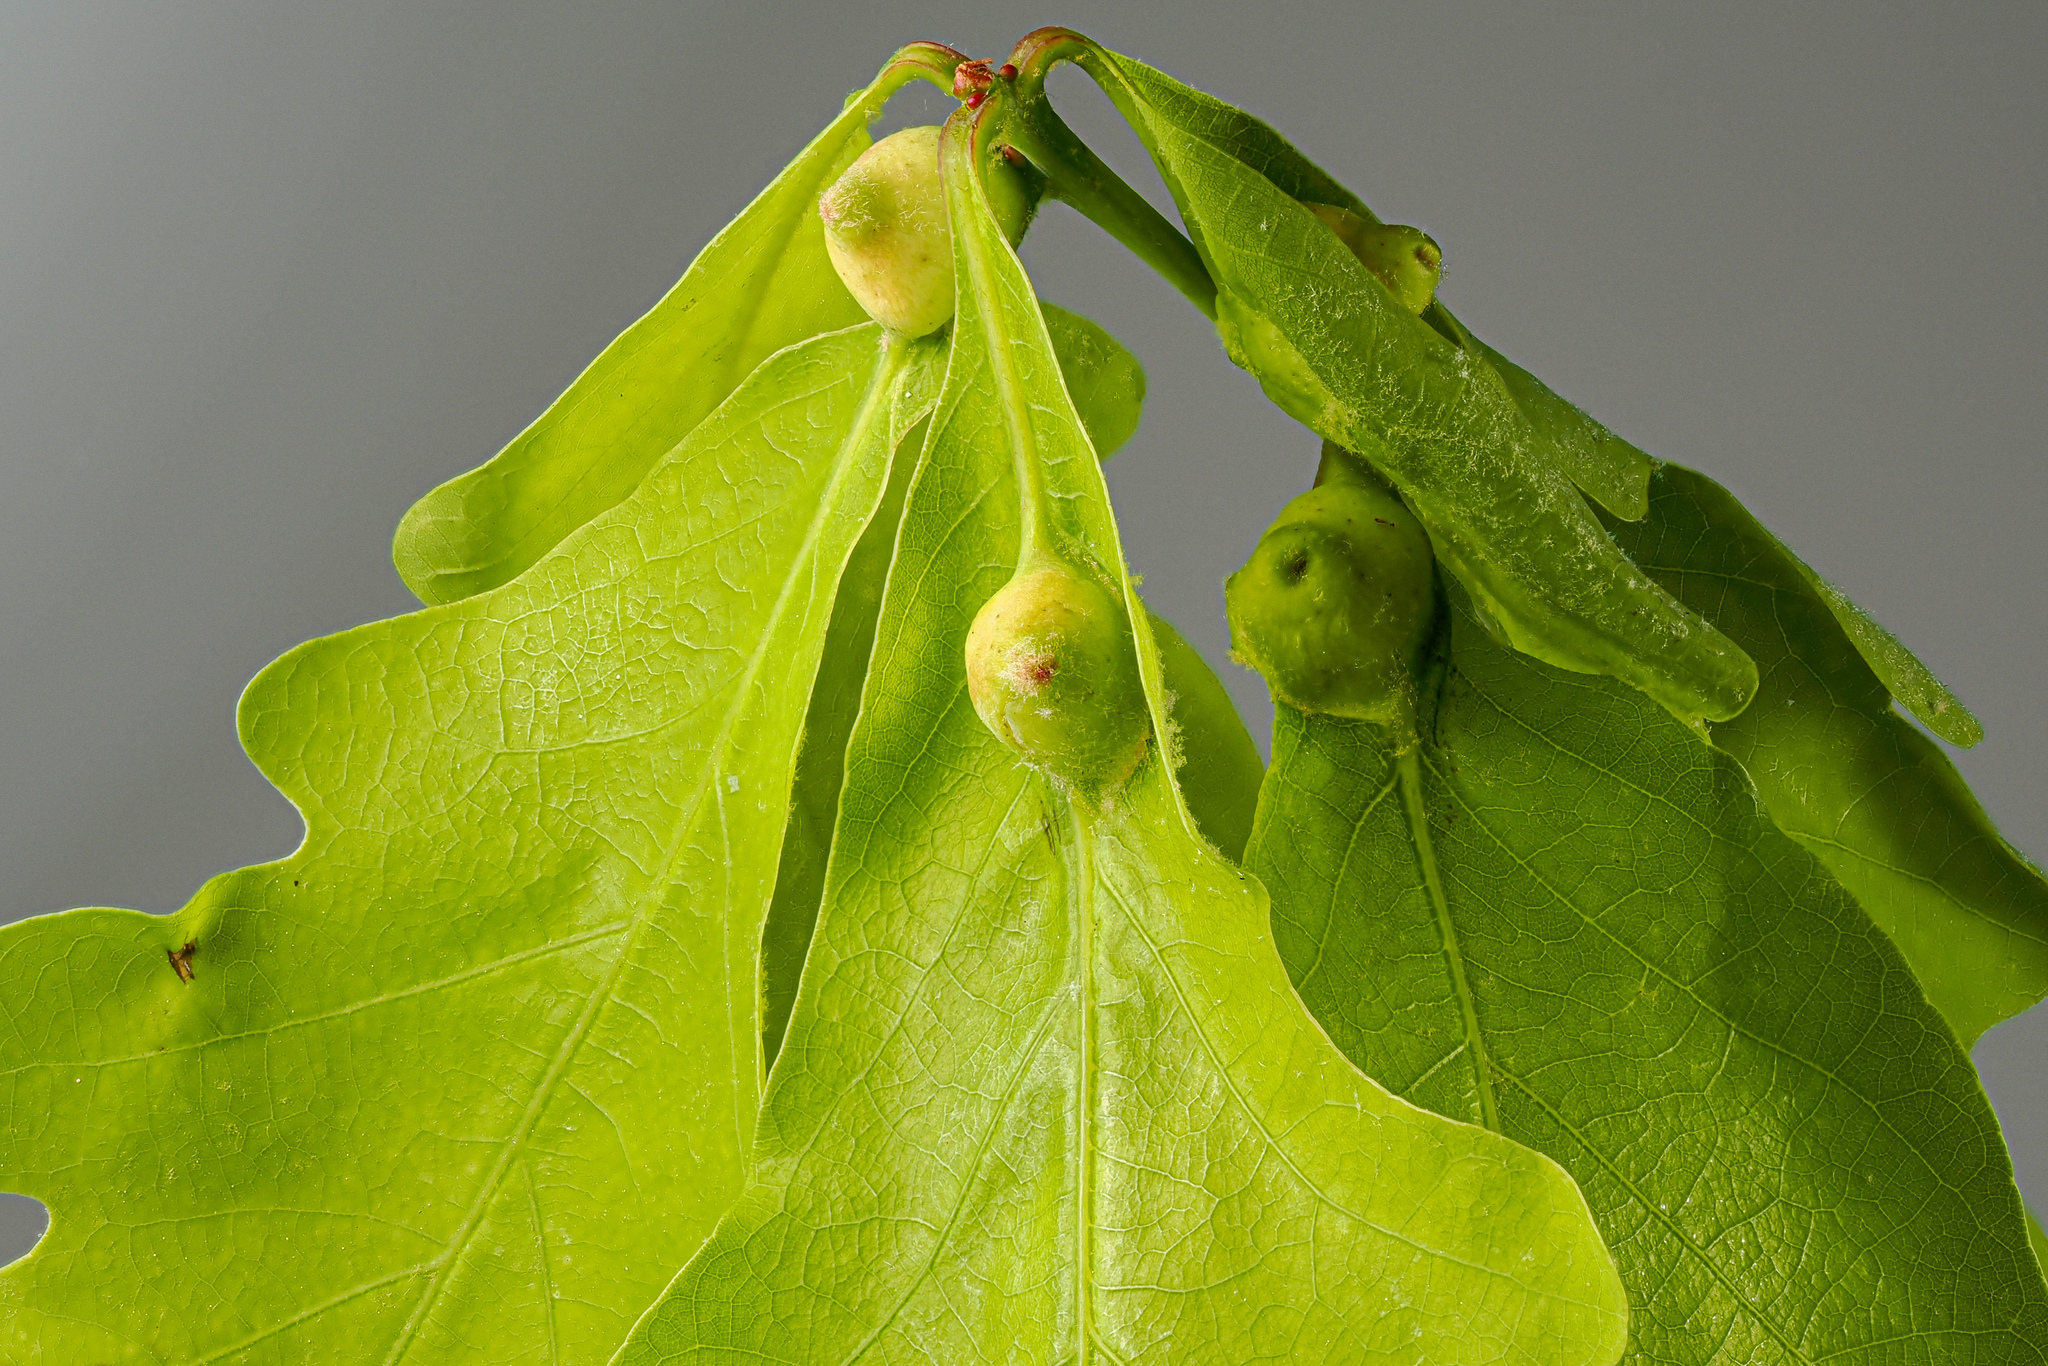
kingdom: Animalia
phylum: Arthropoda
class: Insecta
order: Hymenoptera
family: Cynipidae
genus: Andricus
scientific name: Andricus
